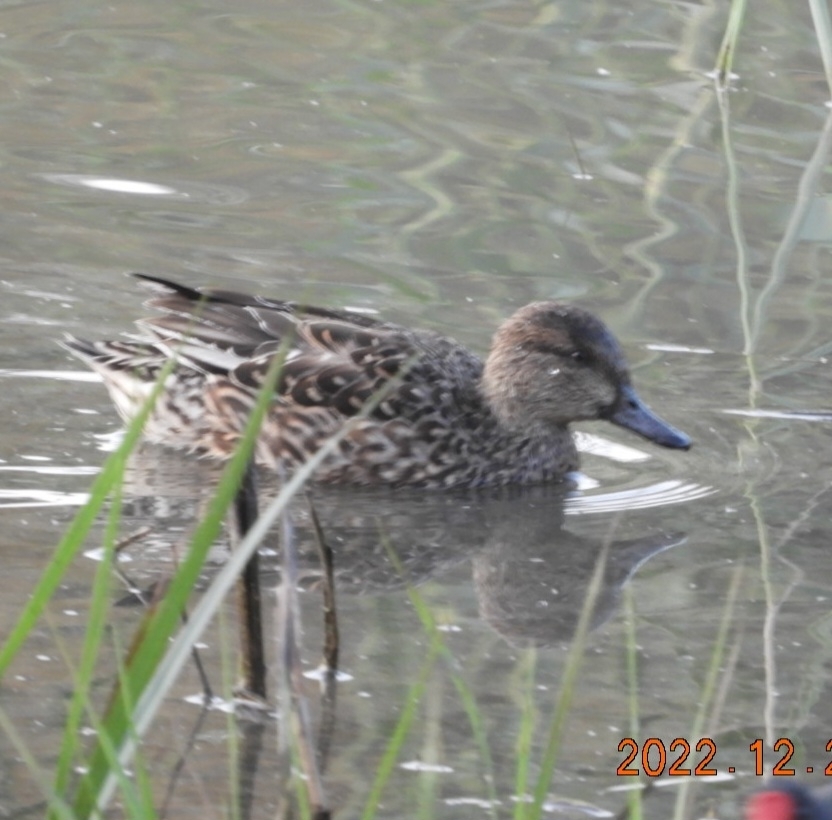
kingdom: Animalia
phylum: Chordata
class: Aves
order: Anseriformes
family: Anatidae
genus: Anas
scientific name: Anas crecca
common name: Eurasian teal
